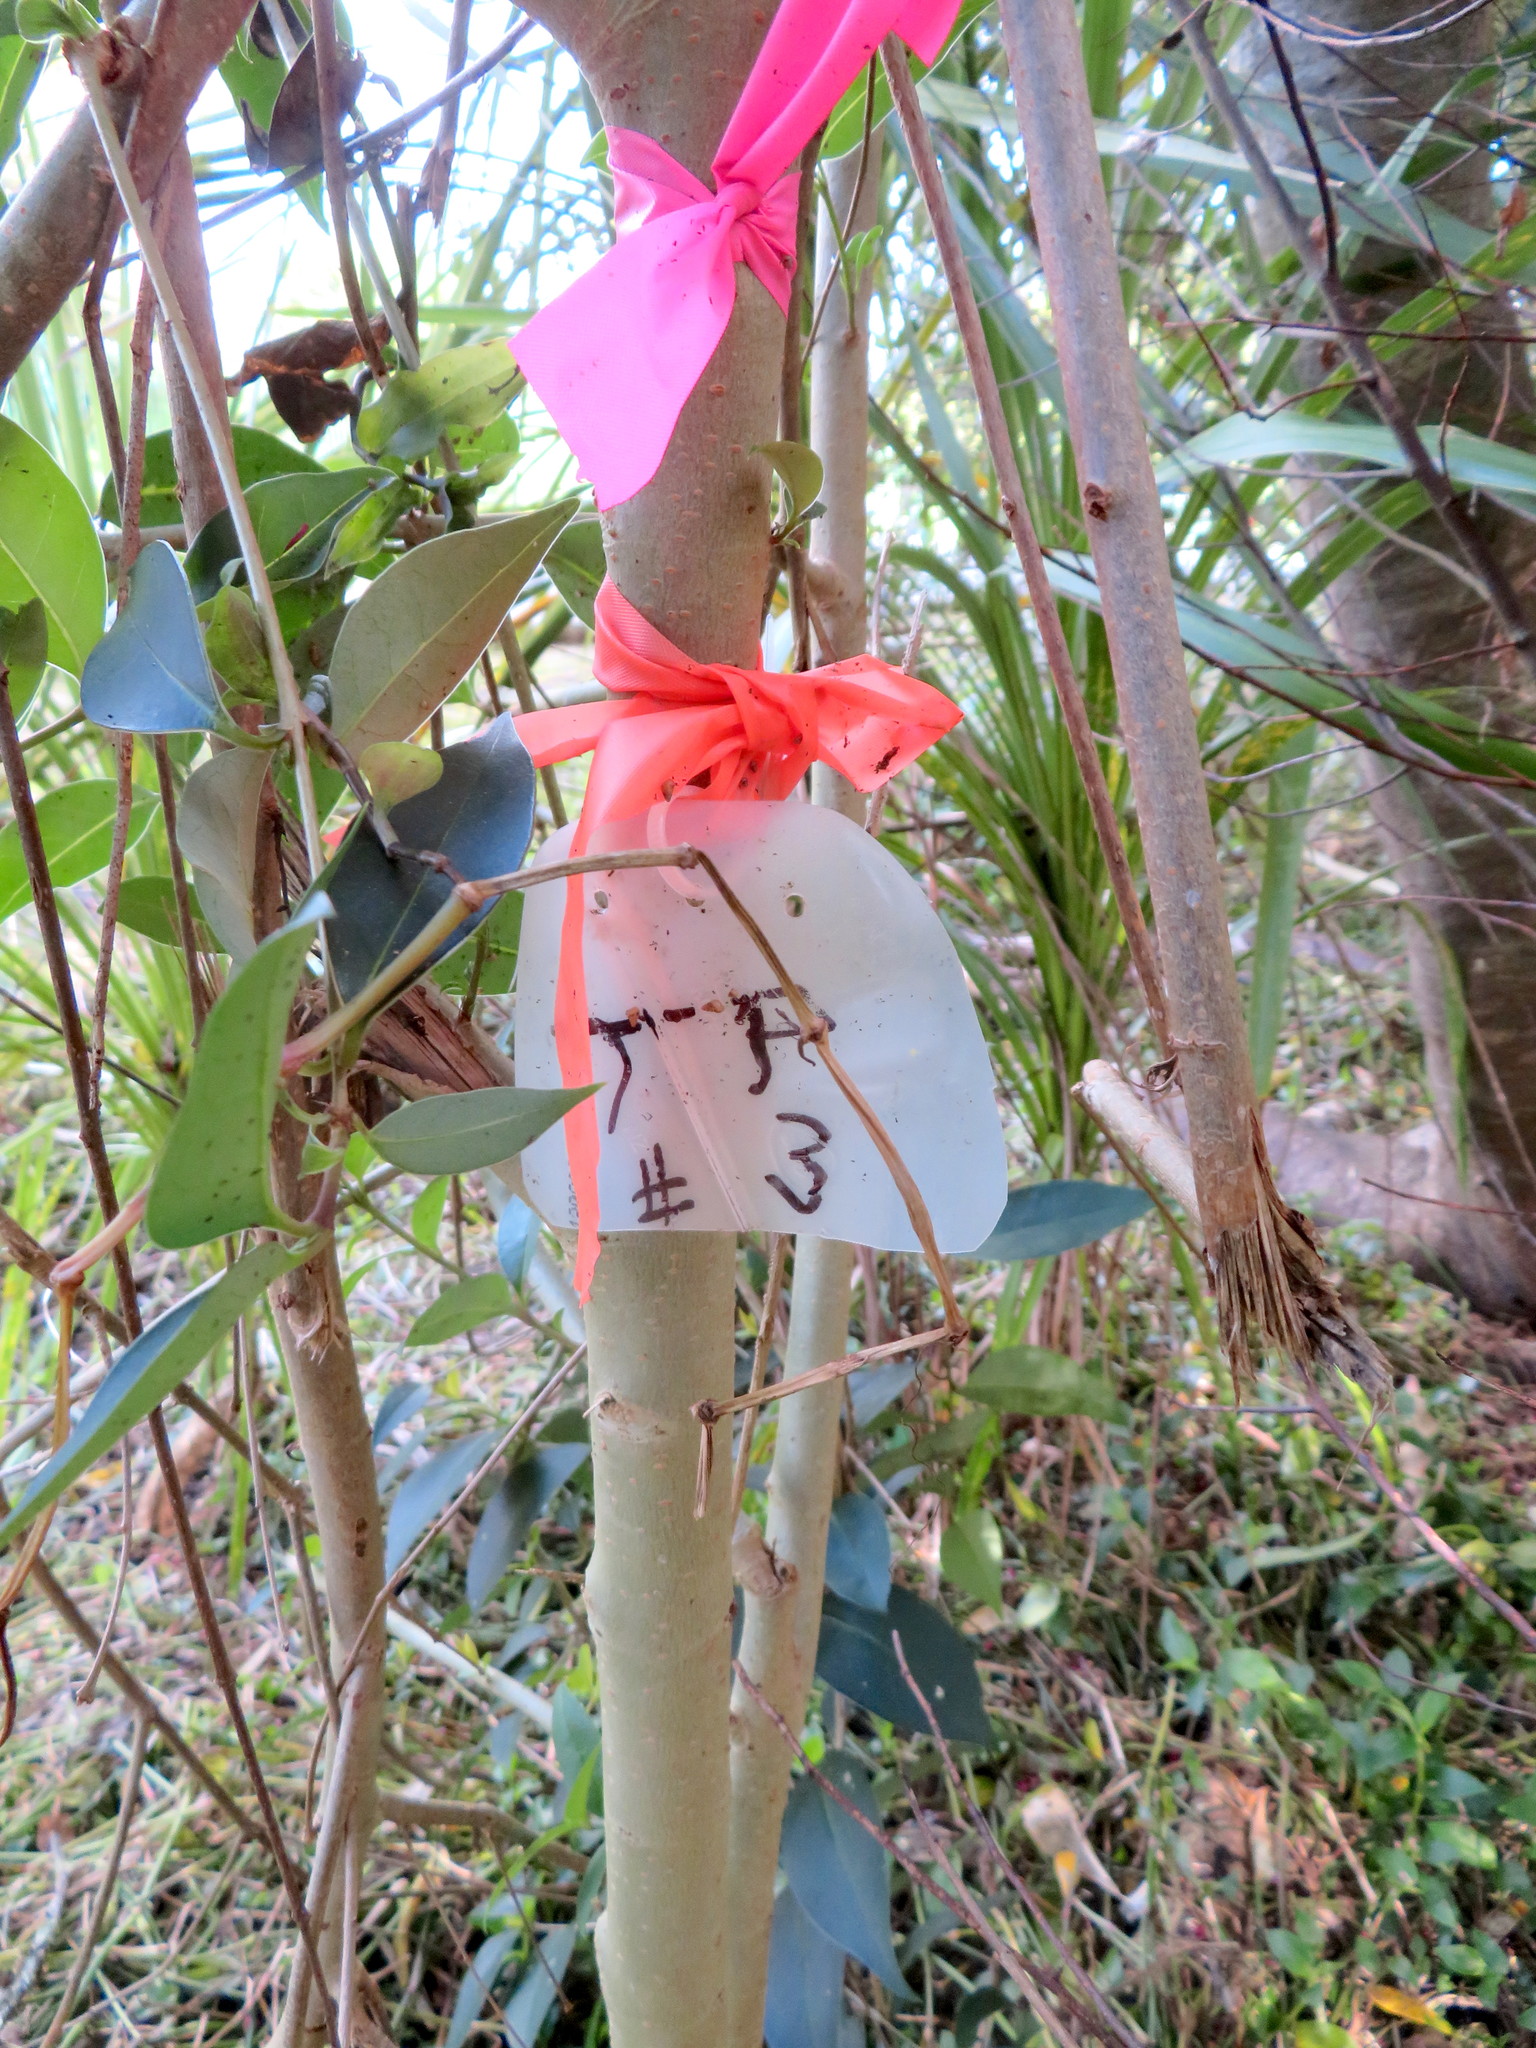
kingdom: Plantae
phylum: Tracheophyta
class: Magnoliopsida
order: Lamiales
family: Oleaceae
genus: Ligustrum
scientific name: Ligustrum lucidum
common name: Glossy privet
